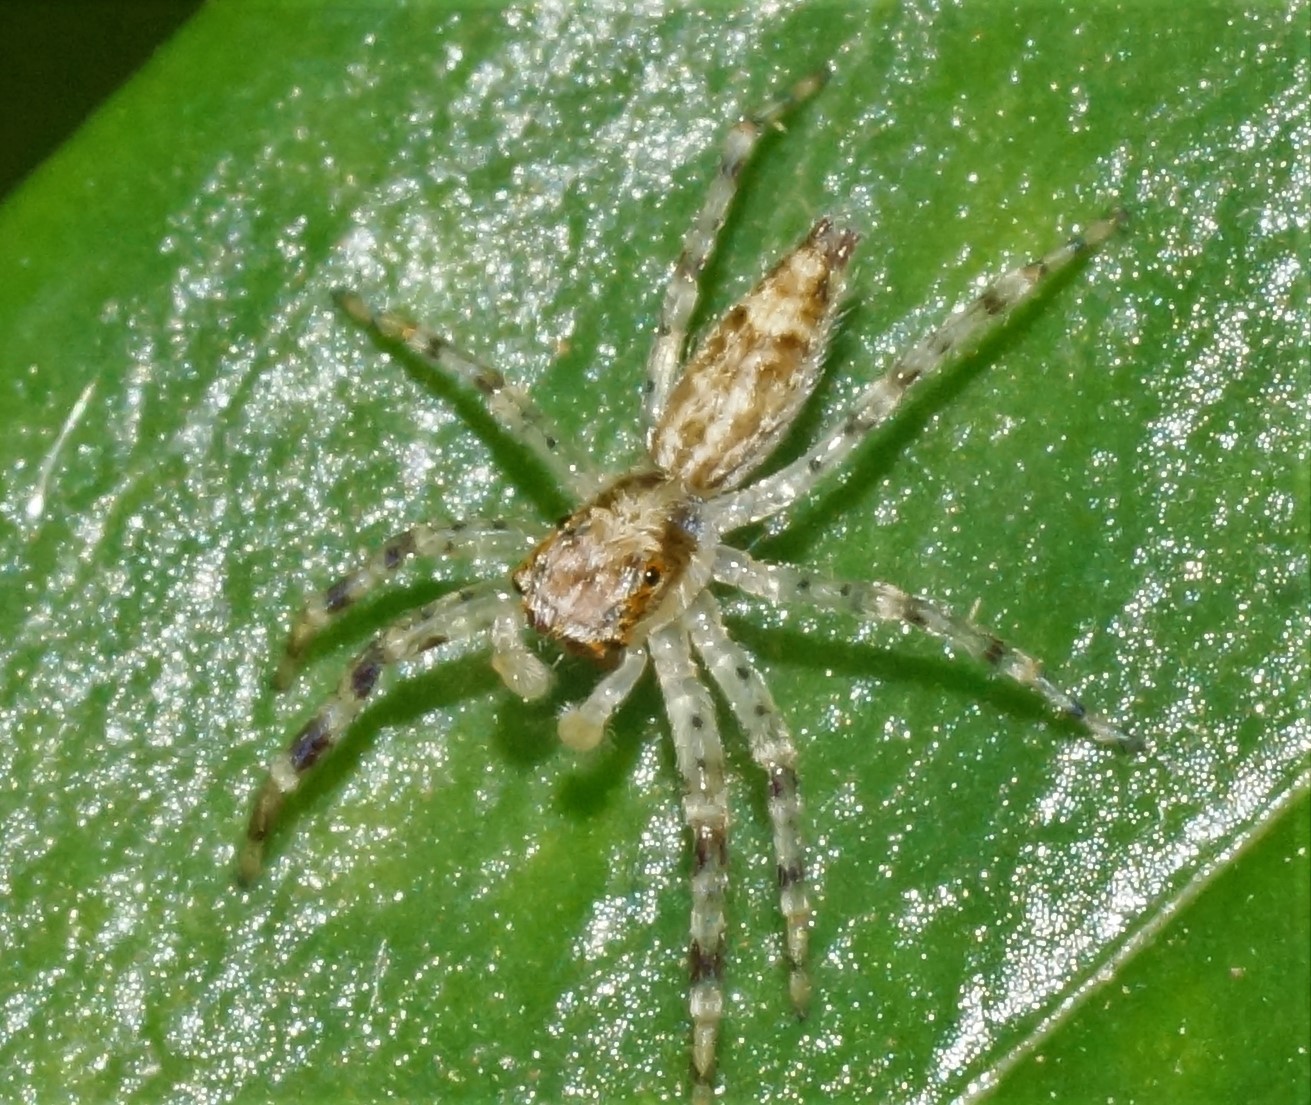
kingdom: Animalia
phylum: Arthropoda
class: Arachnida
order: Araneae
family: Salticidae
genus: Helpis
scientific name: Helpis minitabunda
